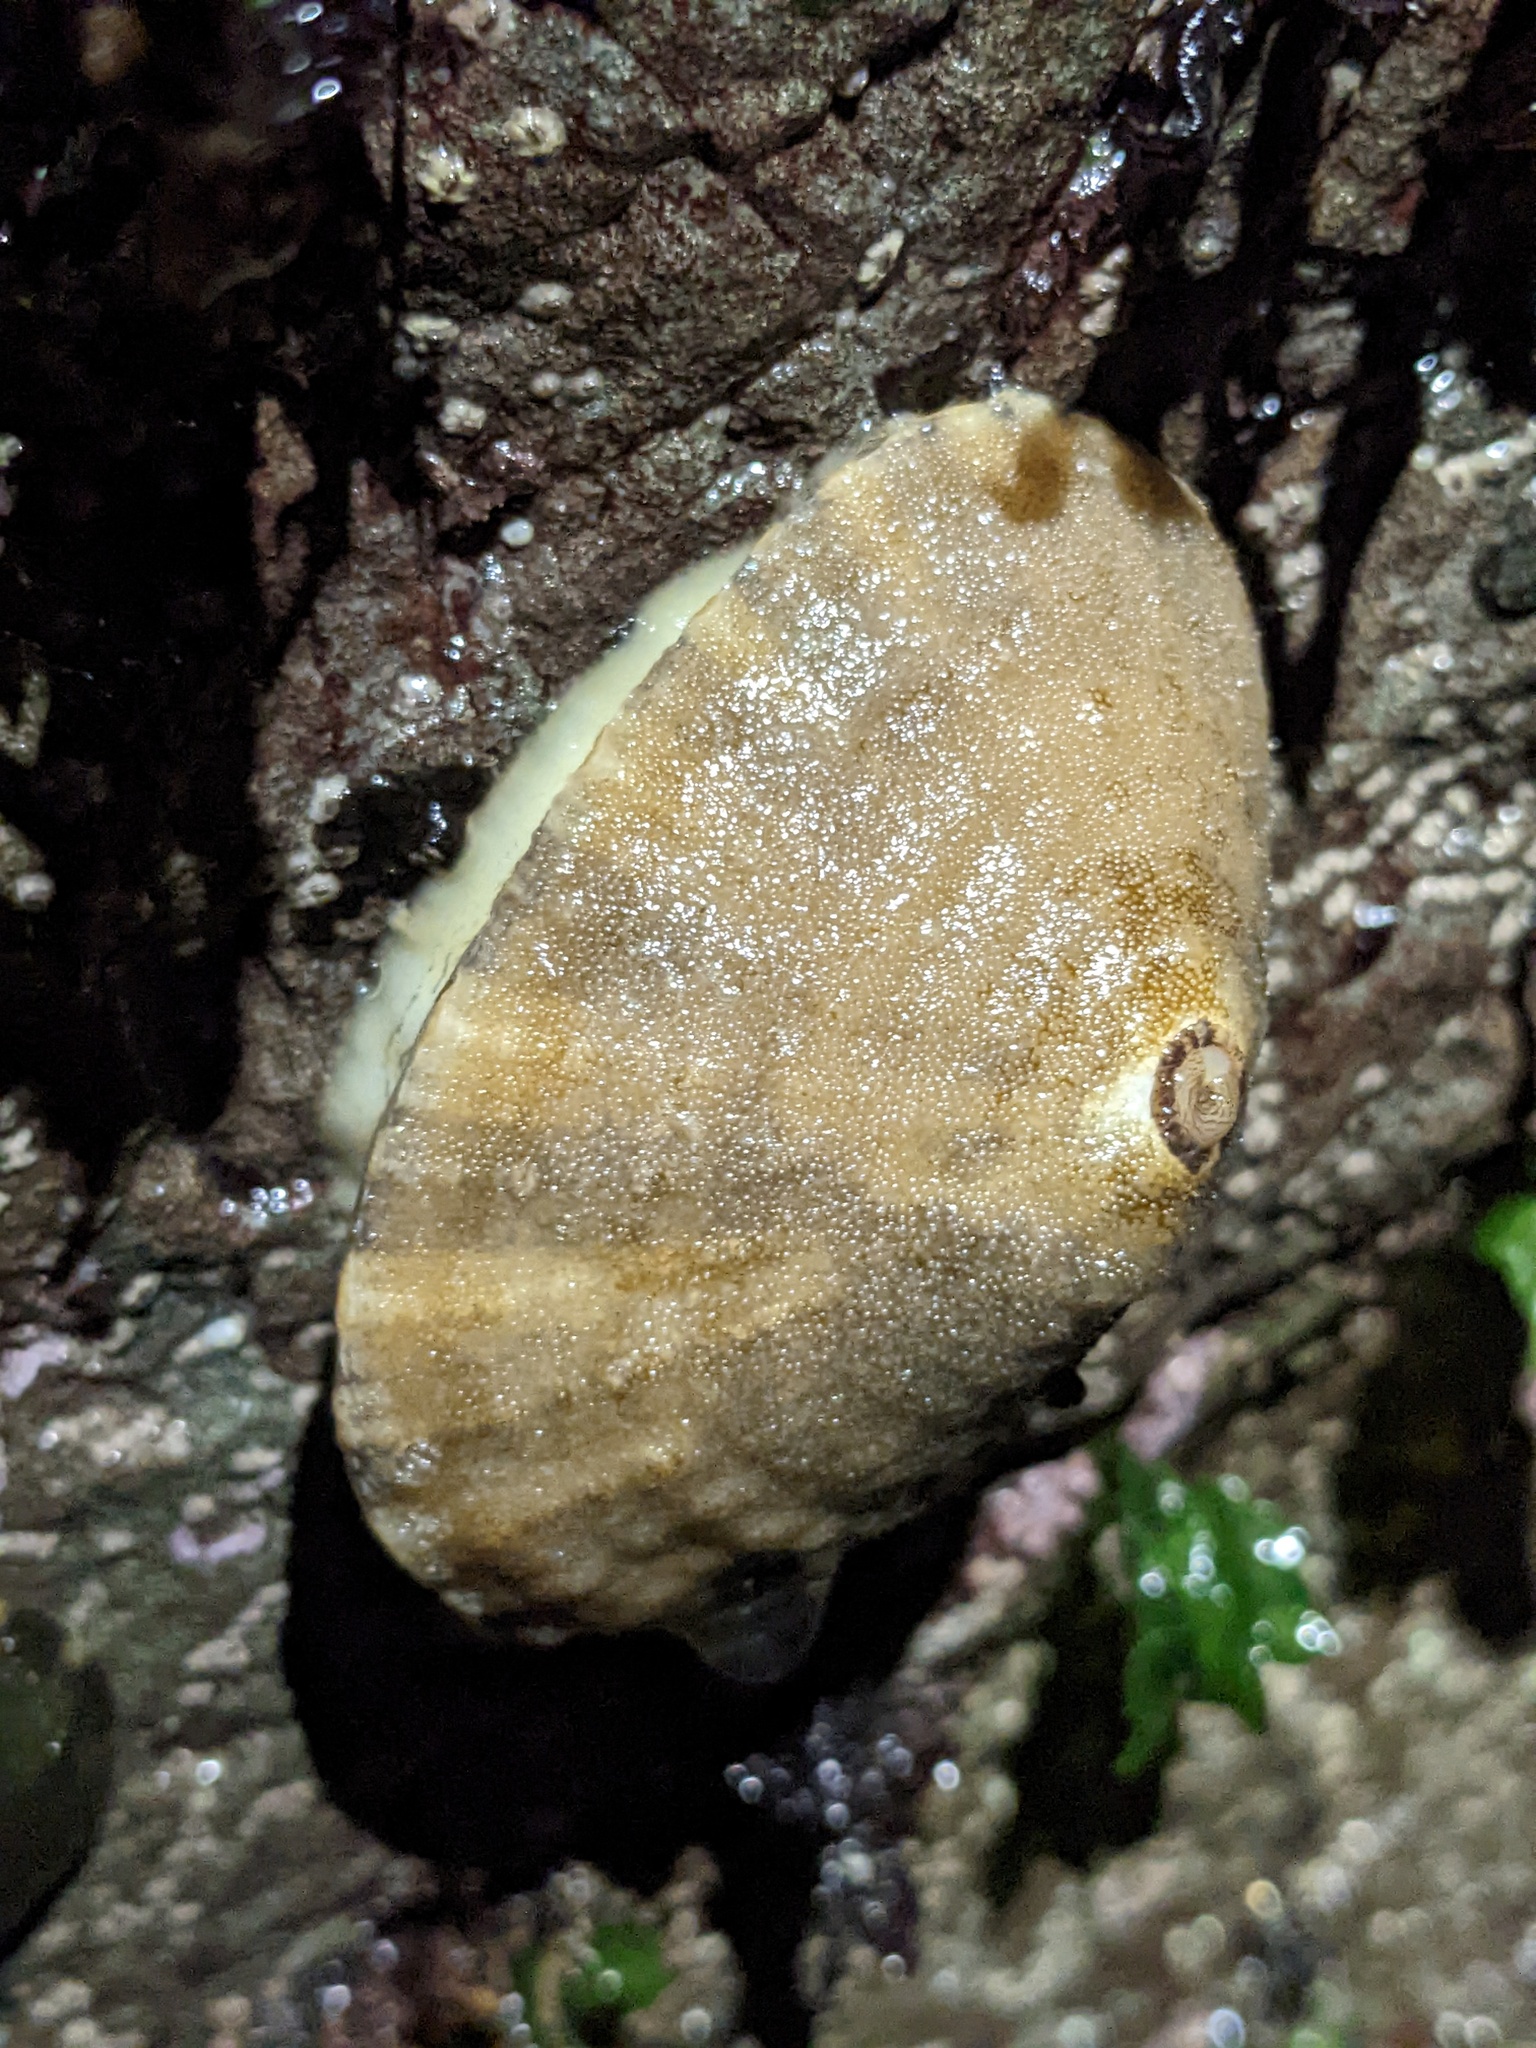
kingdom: Animalia
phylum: Mollusca
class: Gastropoda
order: Lepetellida
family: Fissurellidae
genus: Diodora
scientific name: Diodora aspera
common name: Rough keyhole limpet
